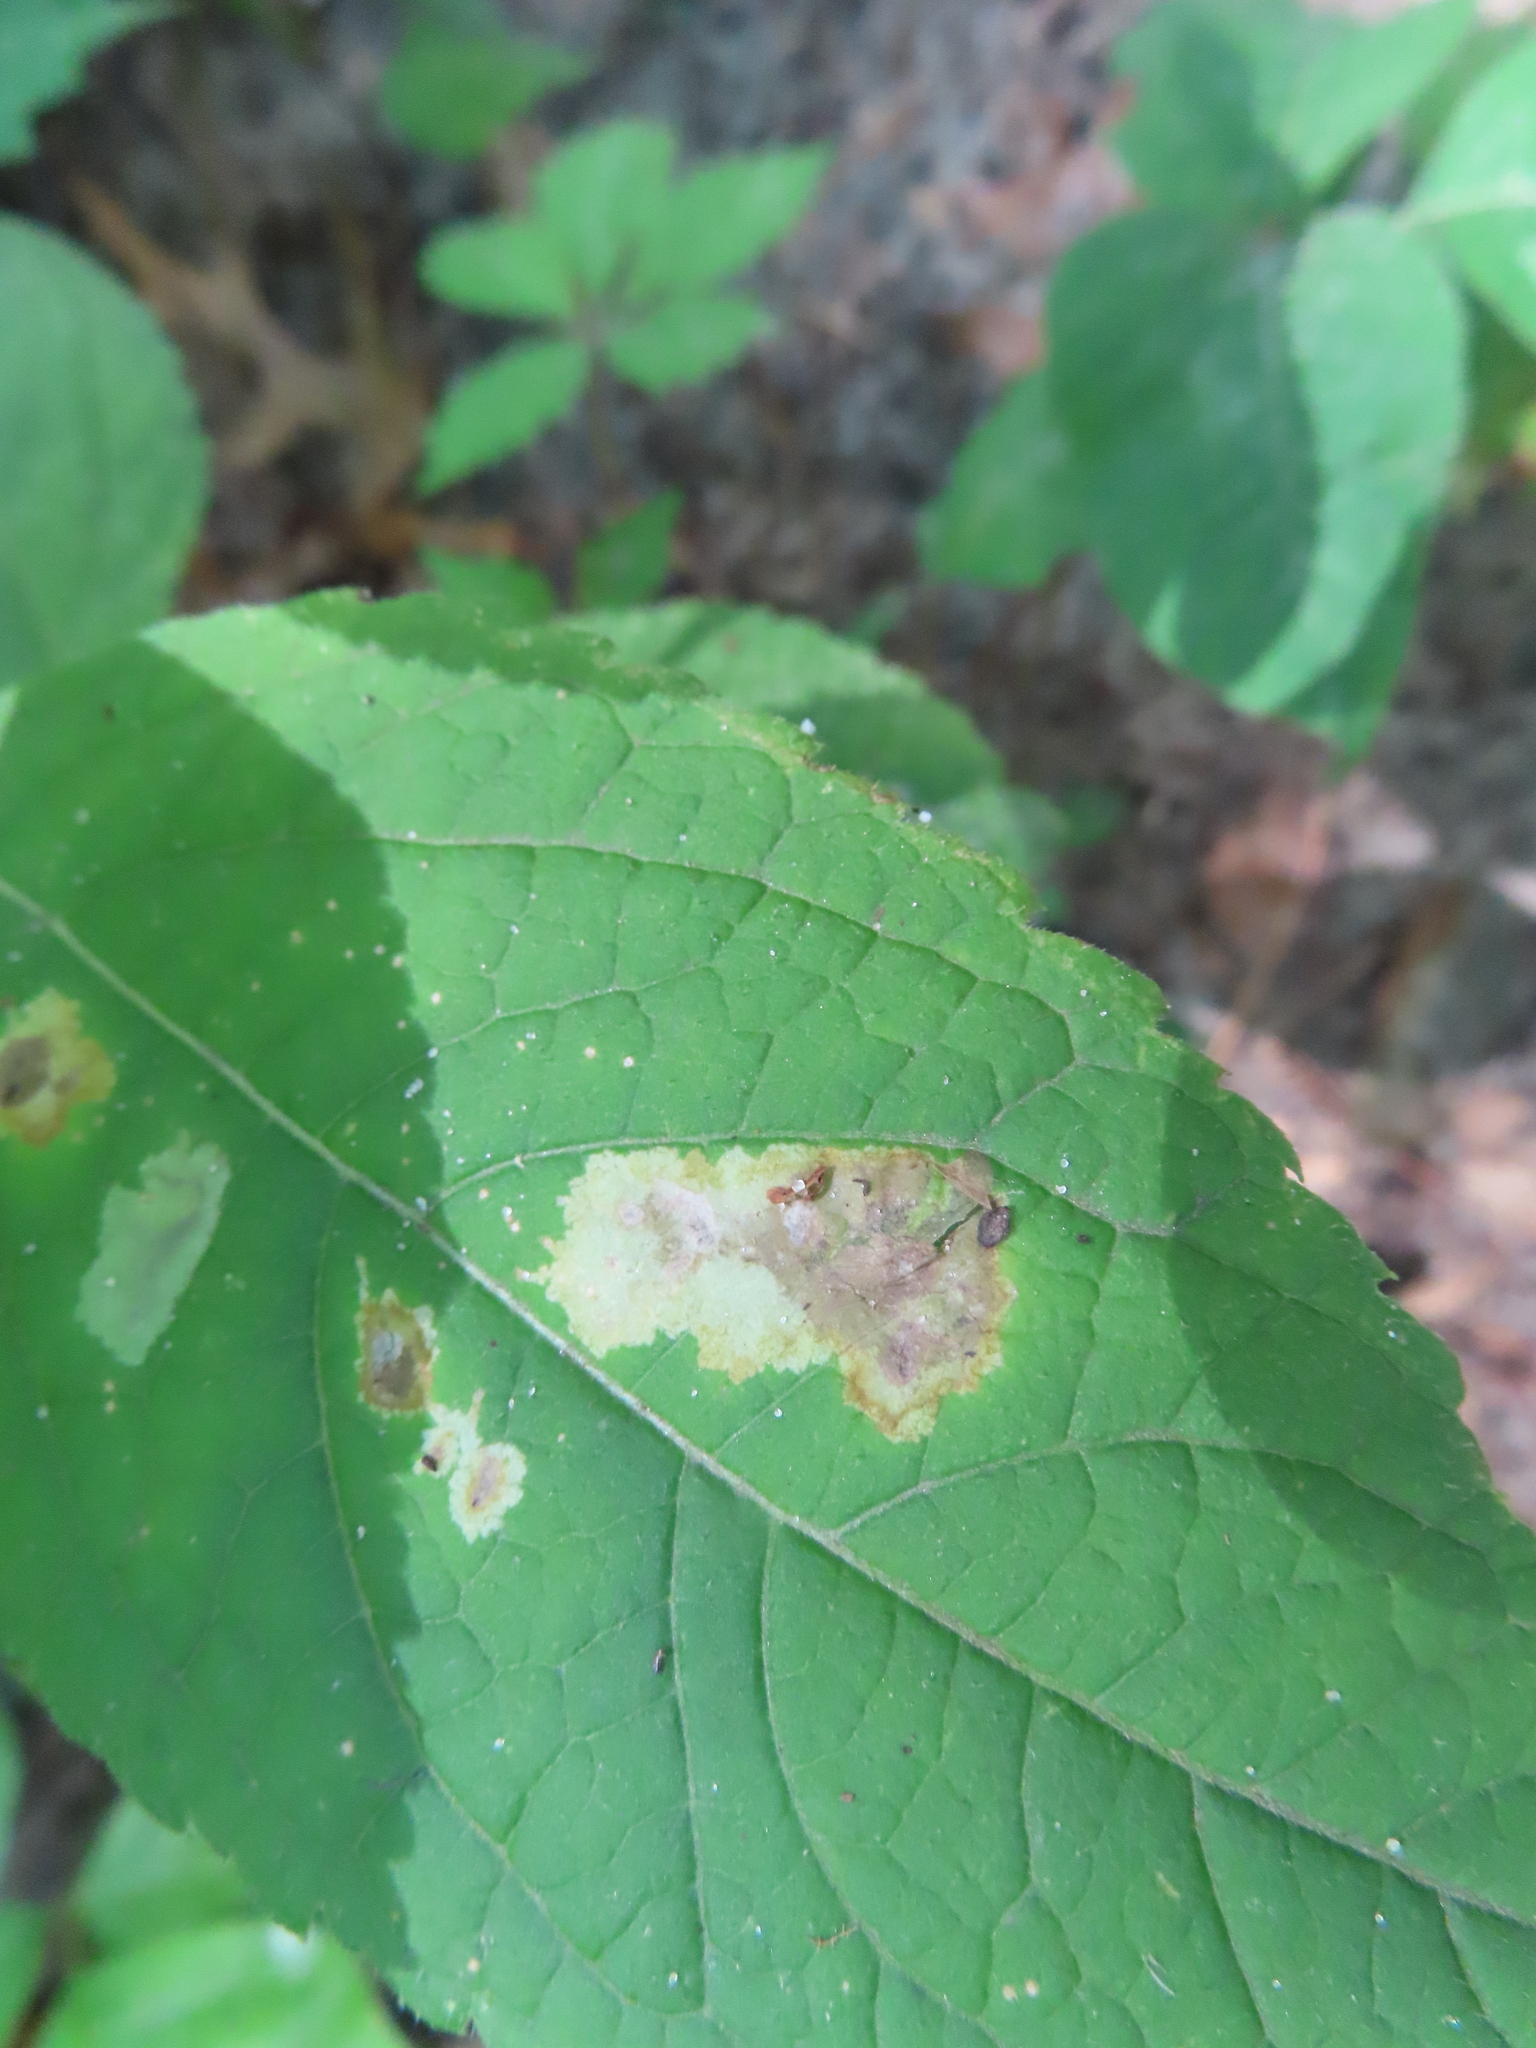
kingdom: Animalia
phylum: Arthropoda
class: Insecta
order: Diptera
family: Agromyzidae
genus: Calycomyza
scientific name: Calycomyza flavinotum
